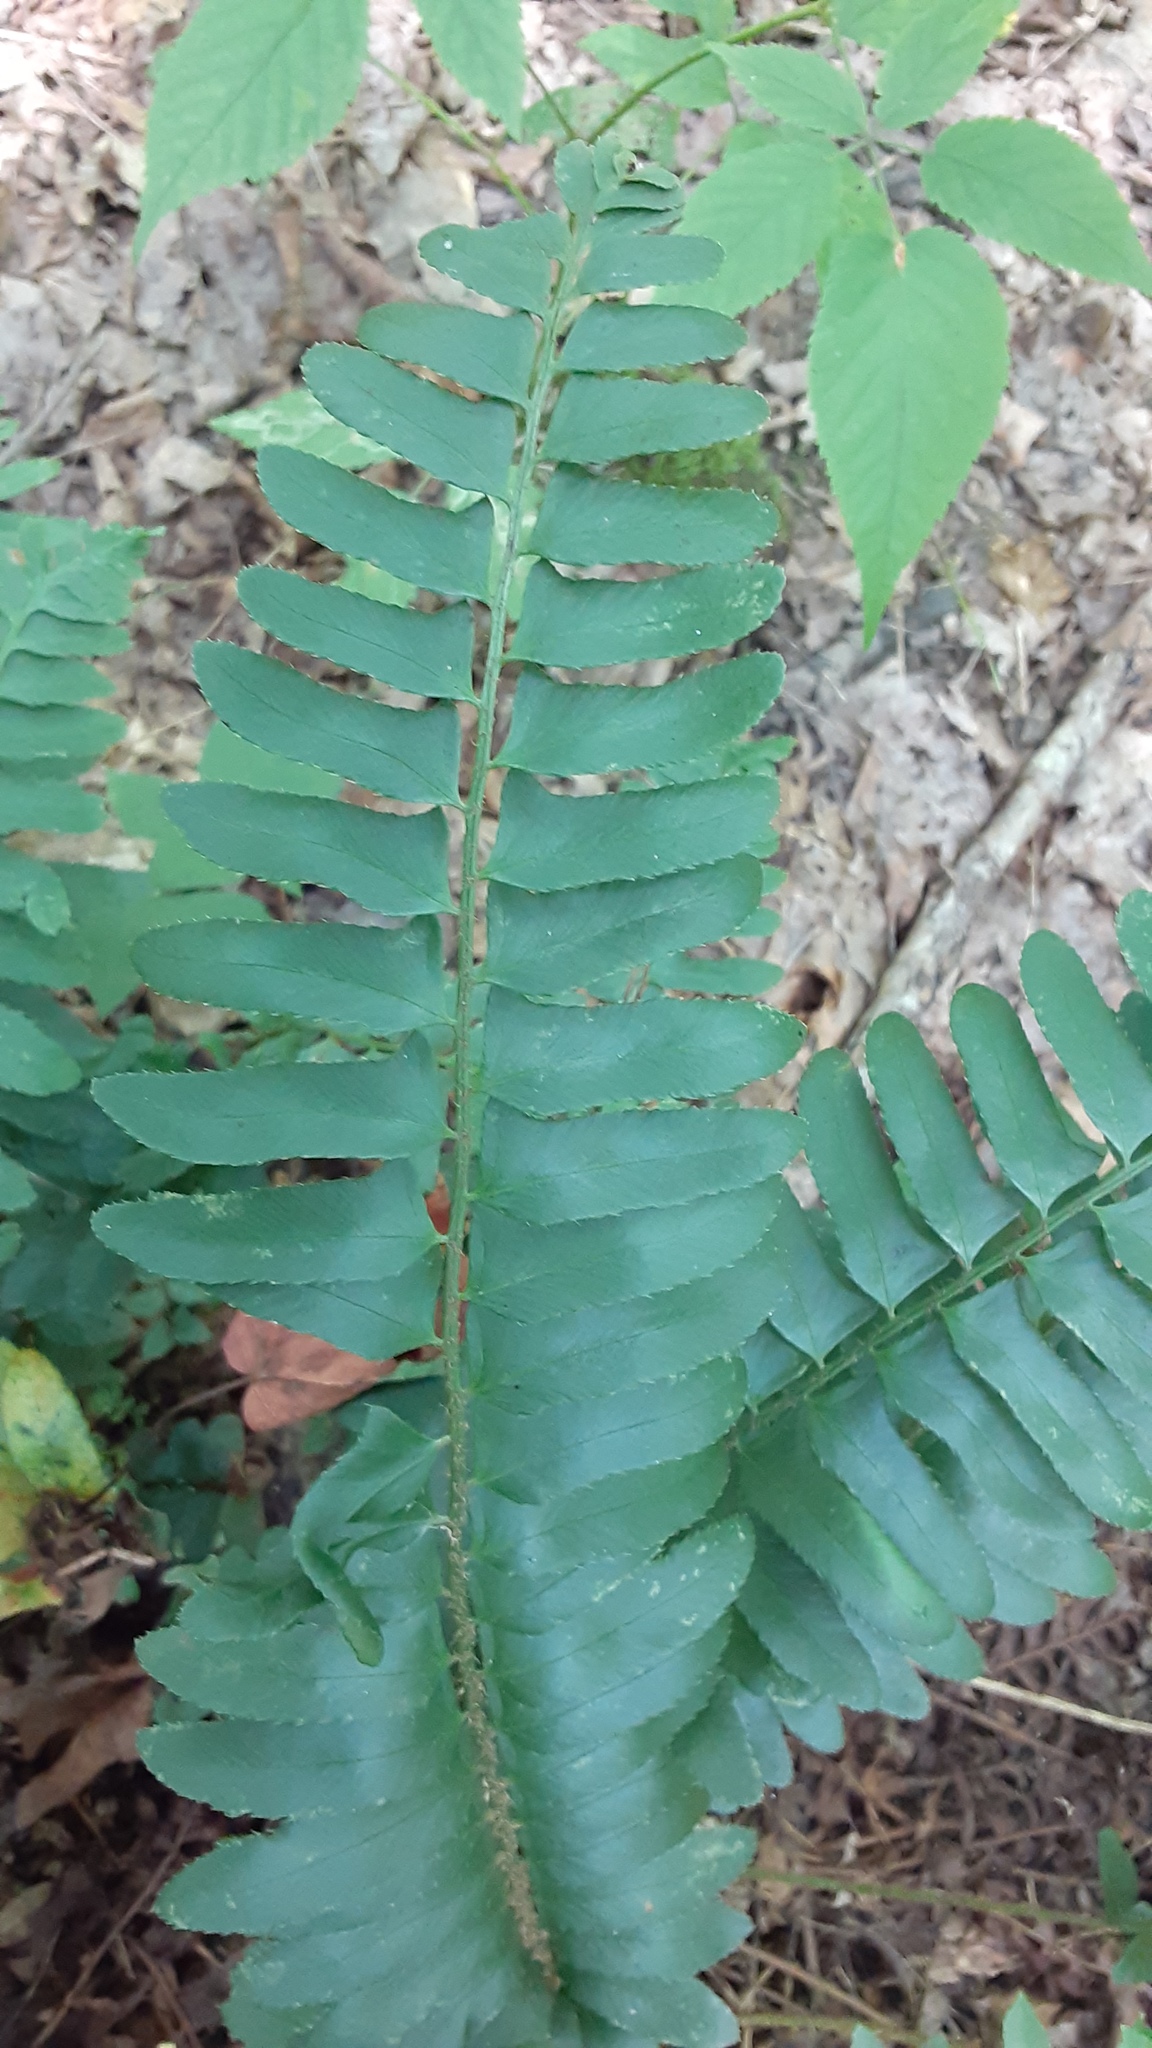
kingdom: Plantae
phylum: Tracheophyta
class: Polypodiopsida
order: Polypodiales
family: Dryopteridaceae
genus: Polystichum
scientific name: Polystichum acrostichoides
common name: Christmas fern
